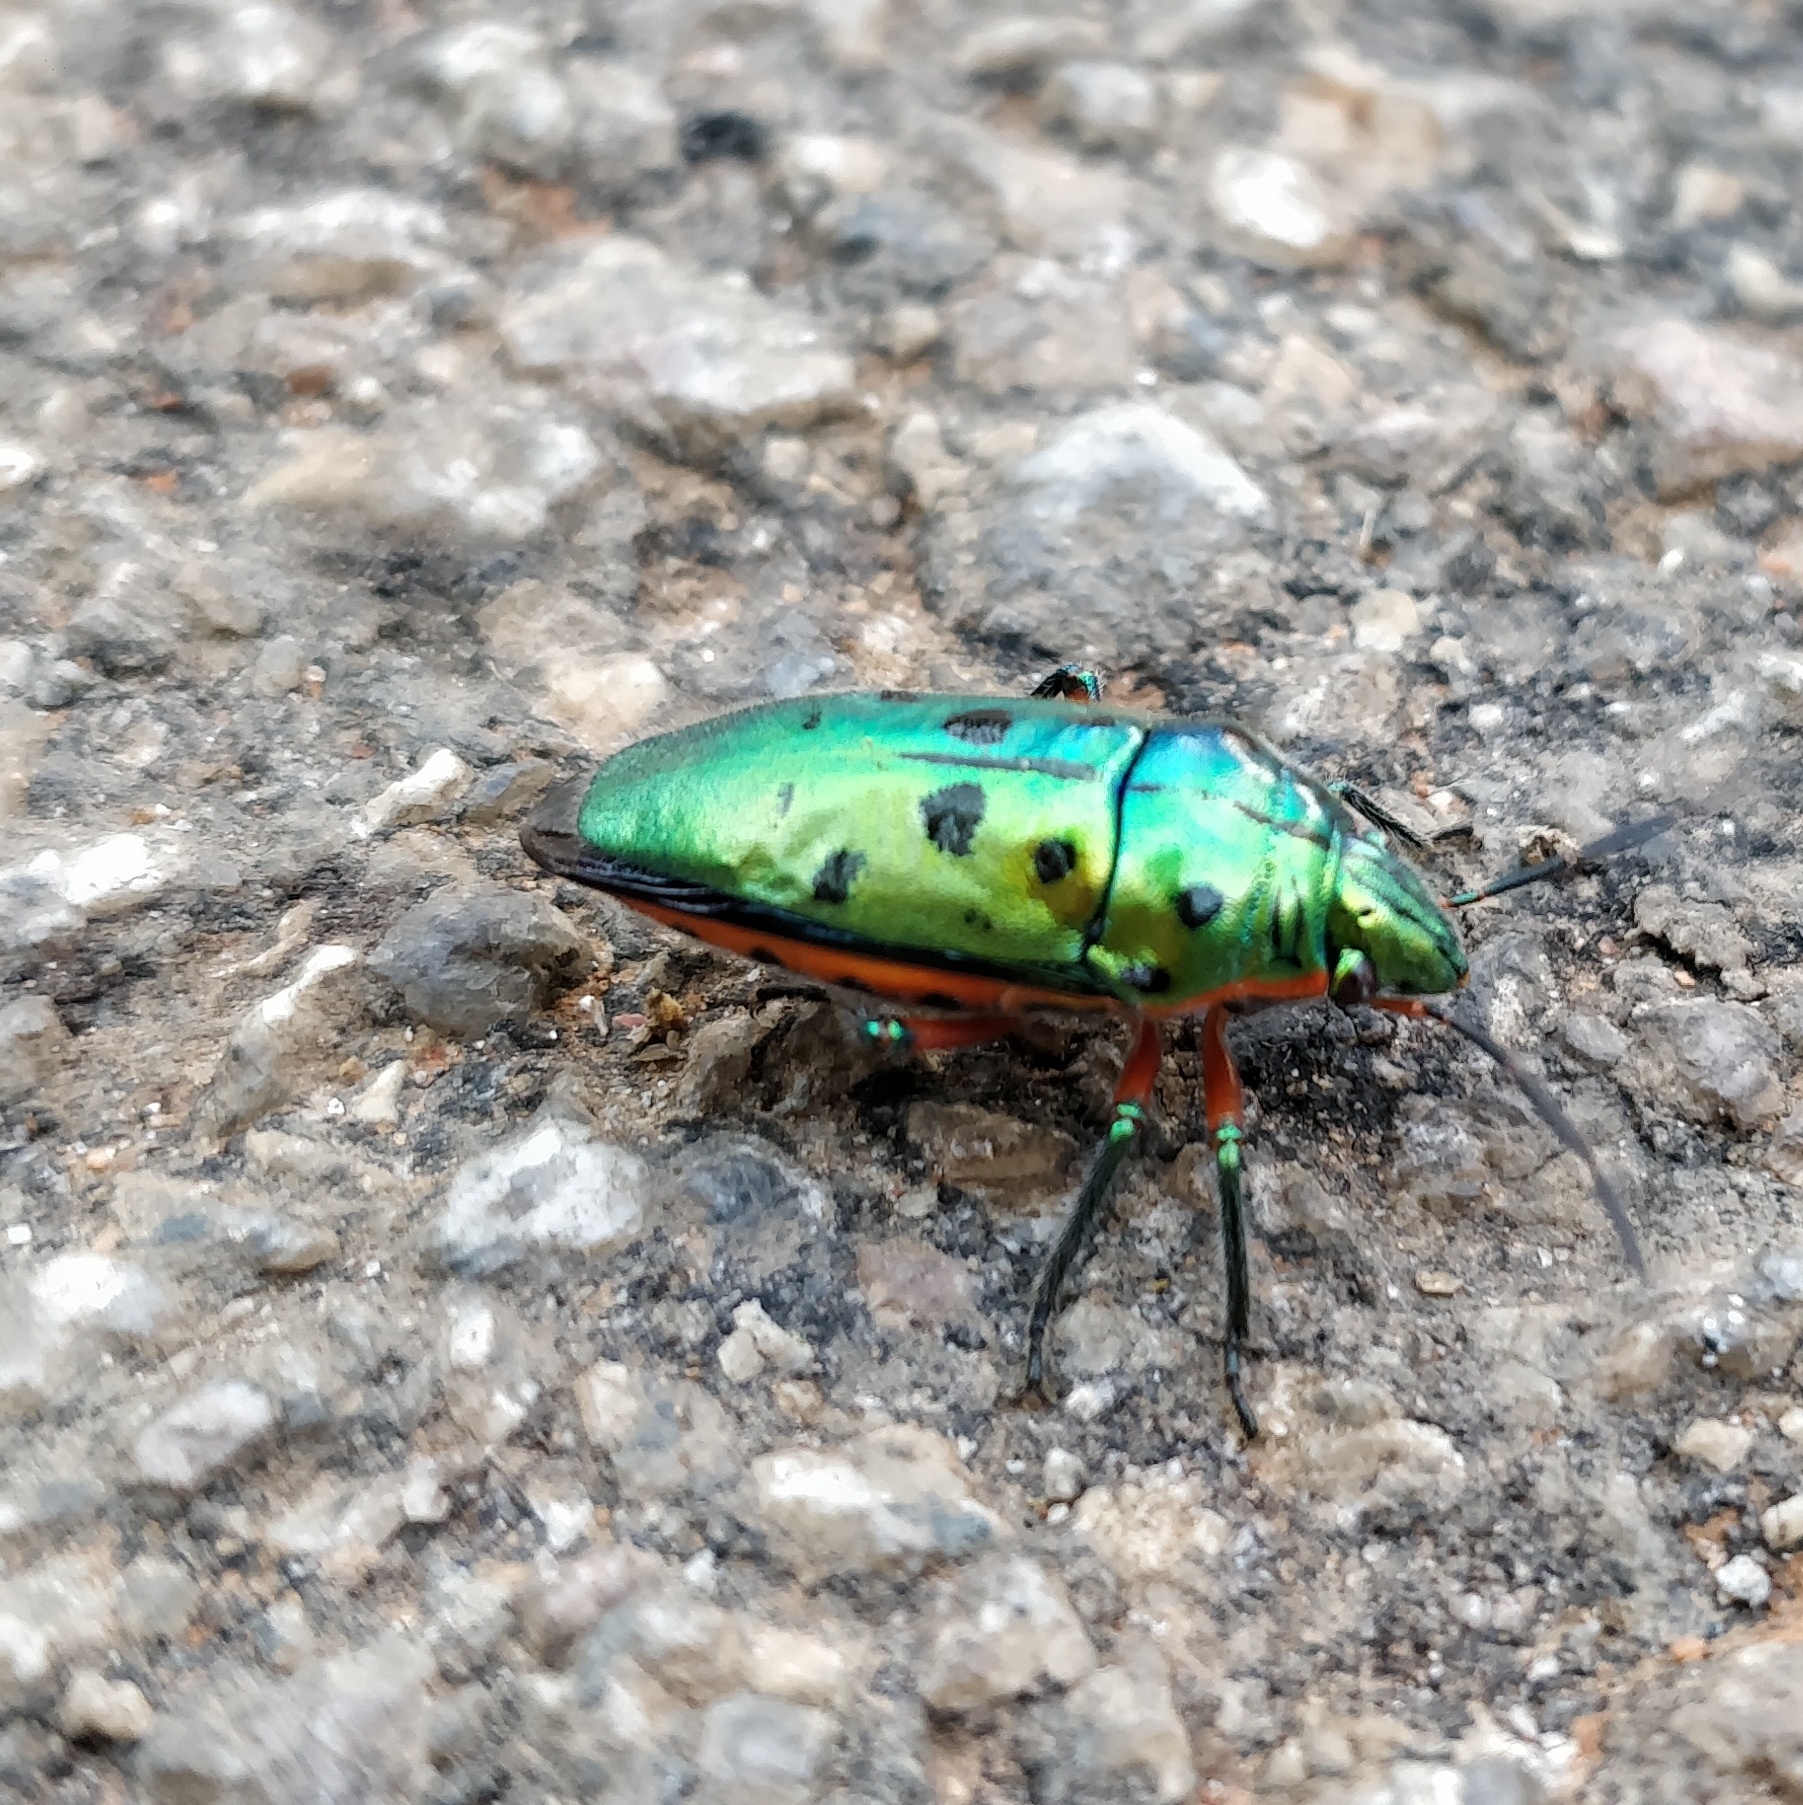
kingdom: Animalia
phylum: Arthropoda
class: Insecta
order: Hemiptera
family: Scutelleridae
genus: Scutellera
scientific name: Scutellera perplexa
